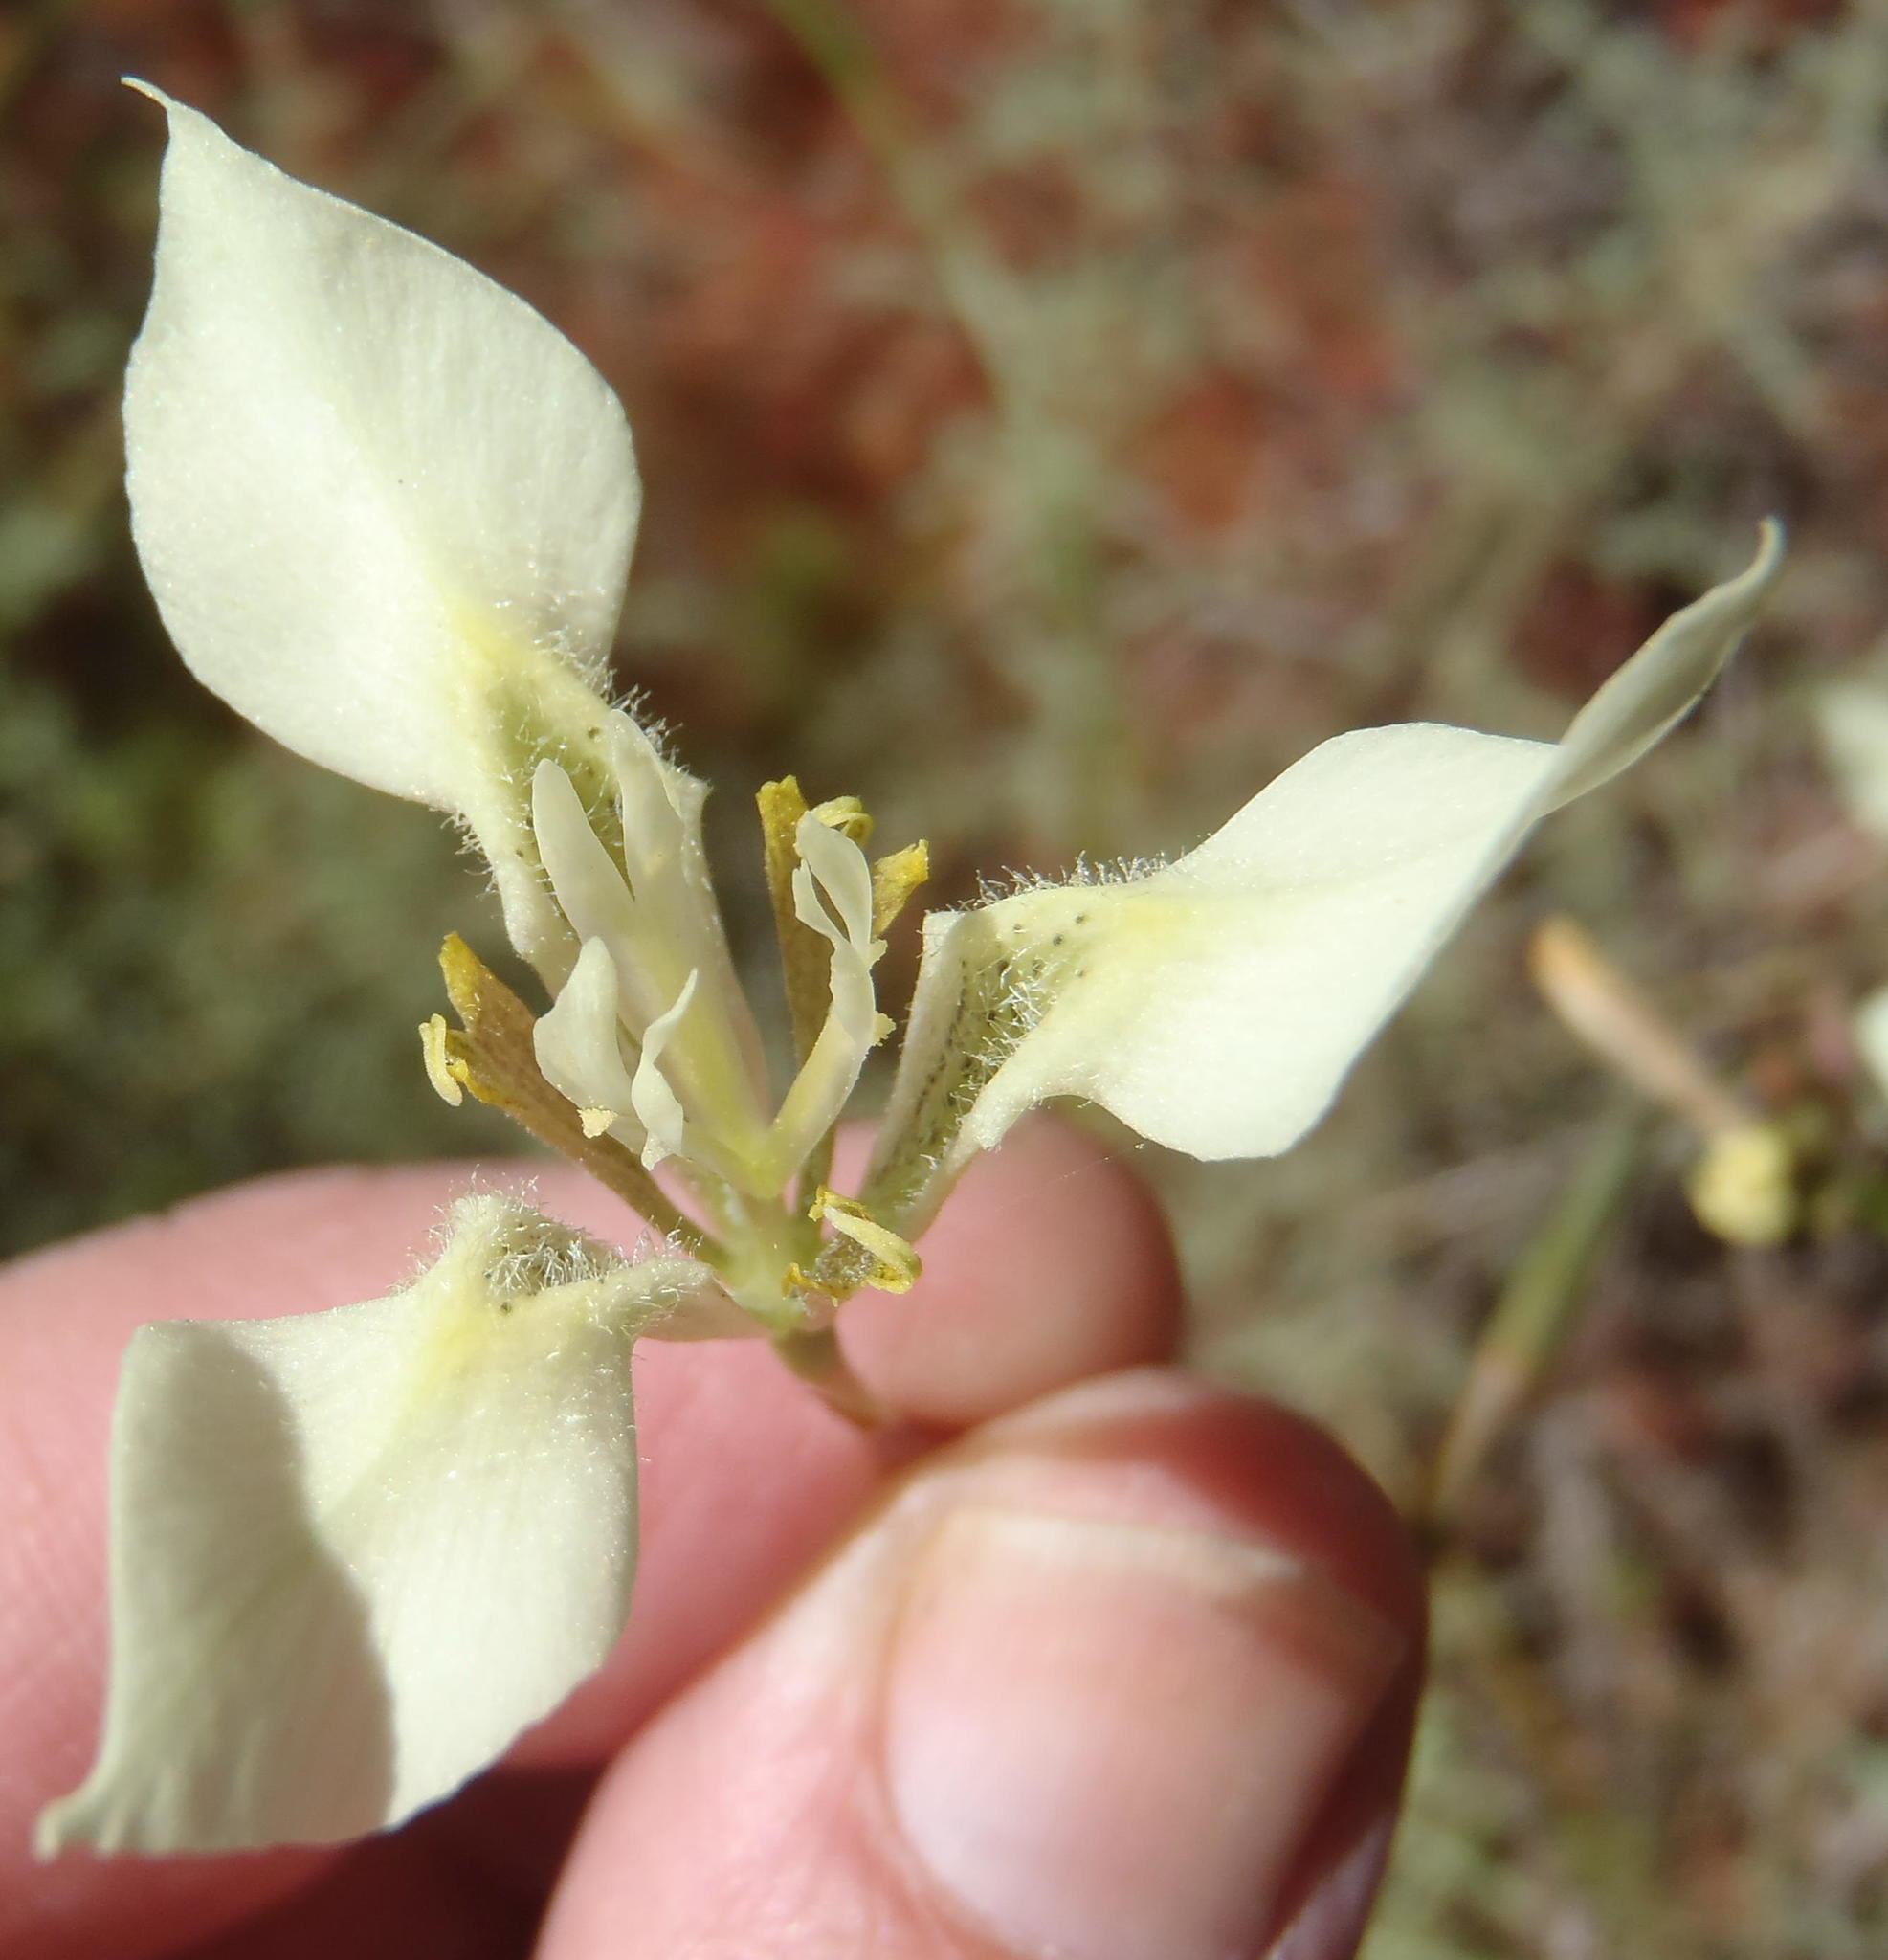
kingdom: Plantae
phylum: Tracheophyta
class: Liliopsida
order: Asparagales
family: Iridaceae
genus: Moraea
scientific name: Moraea bellendenii
